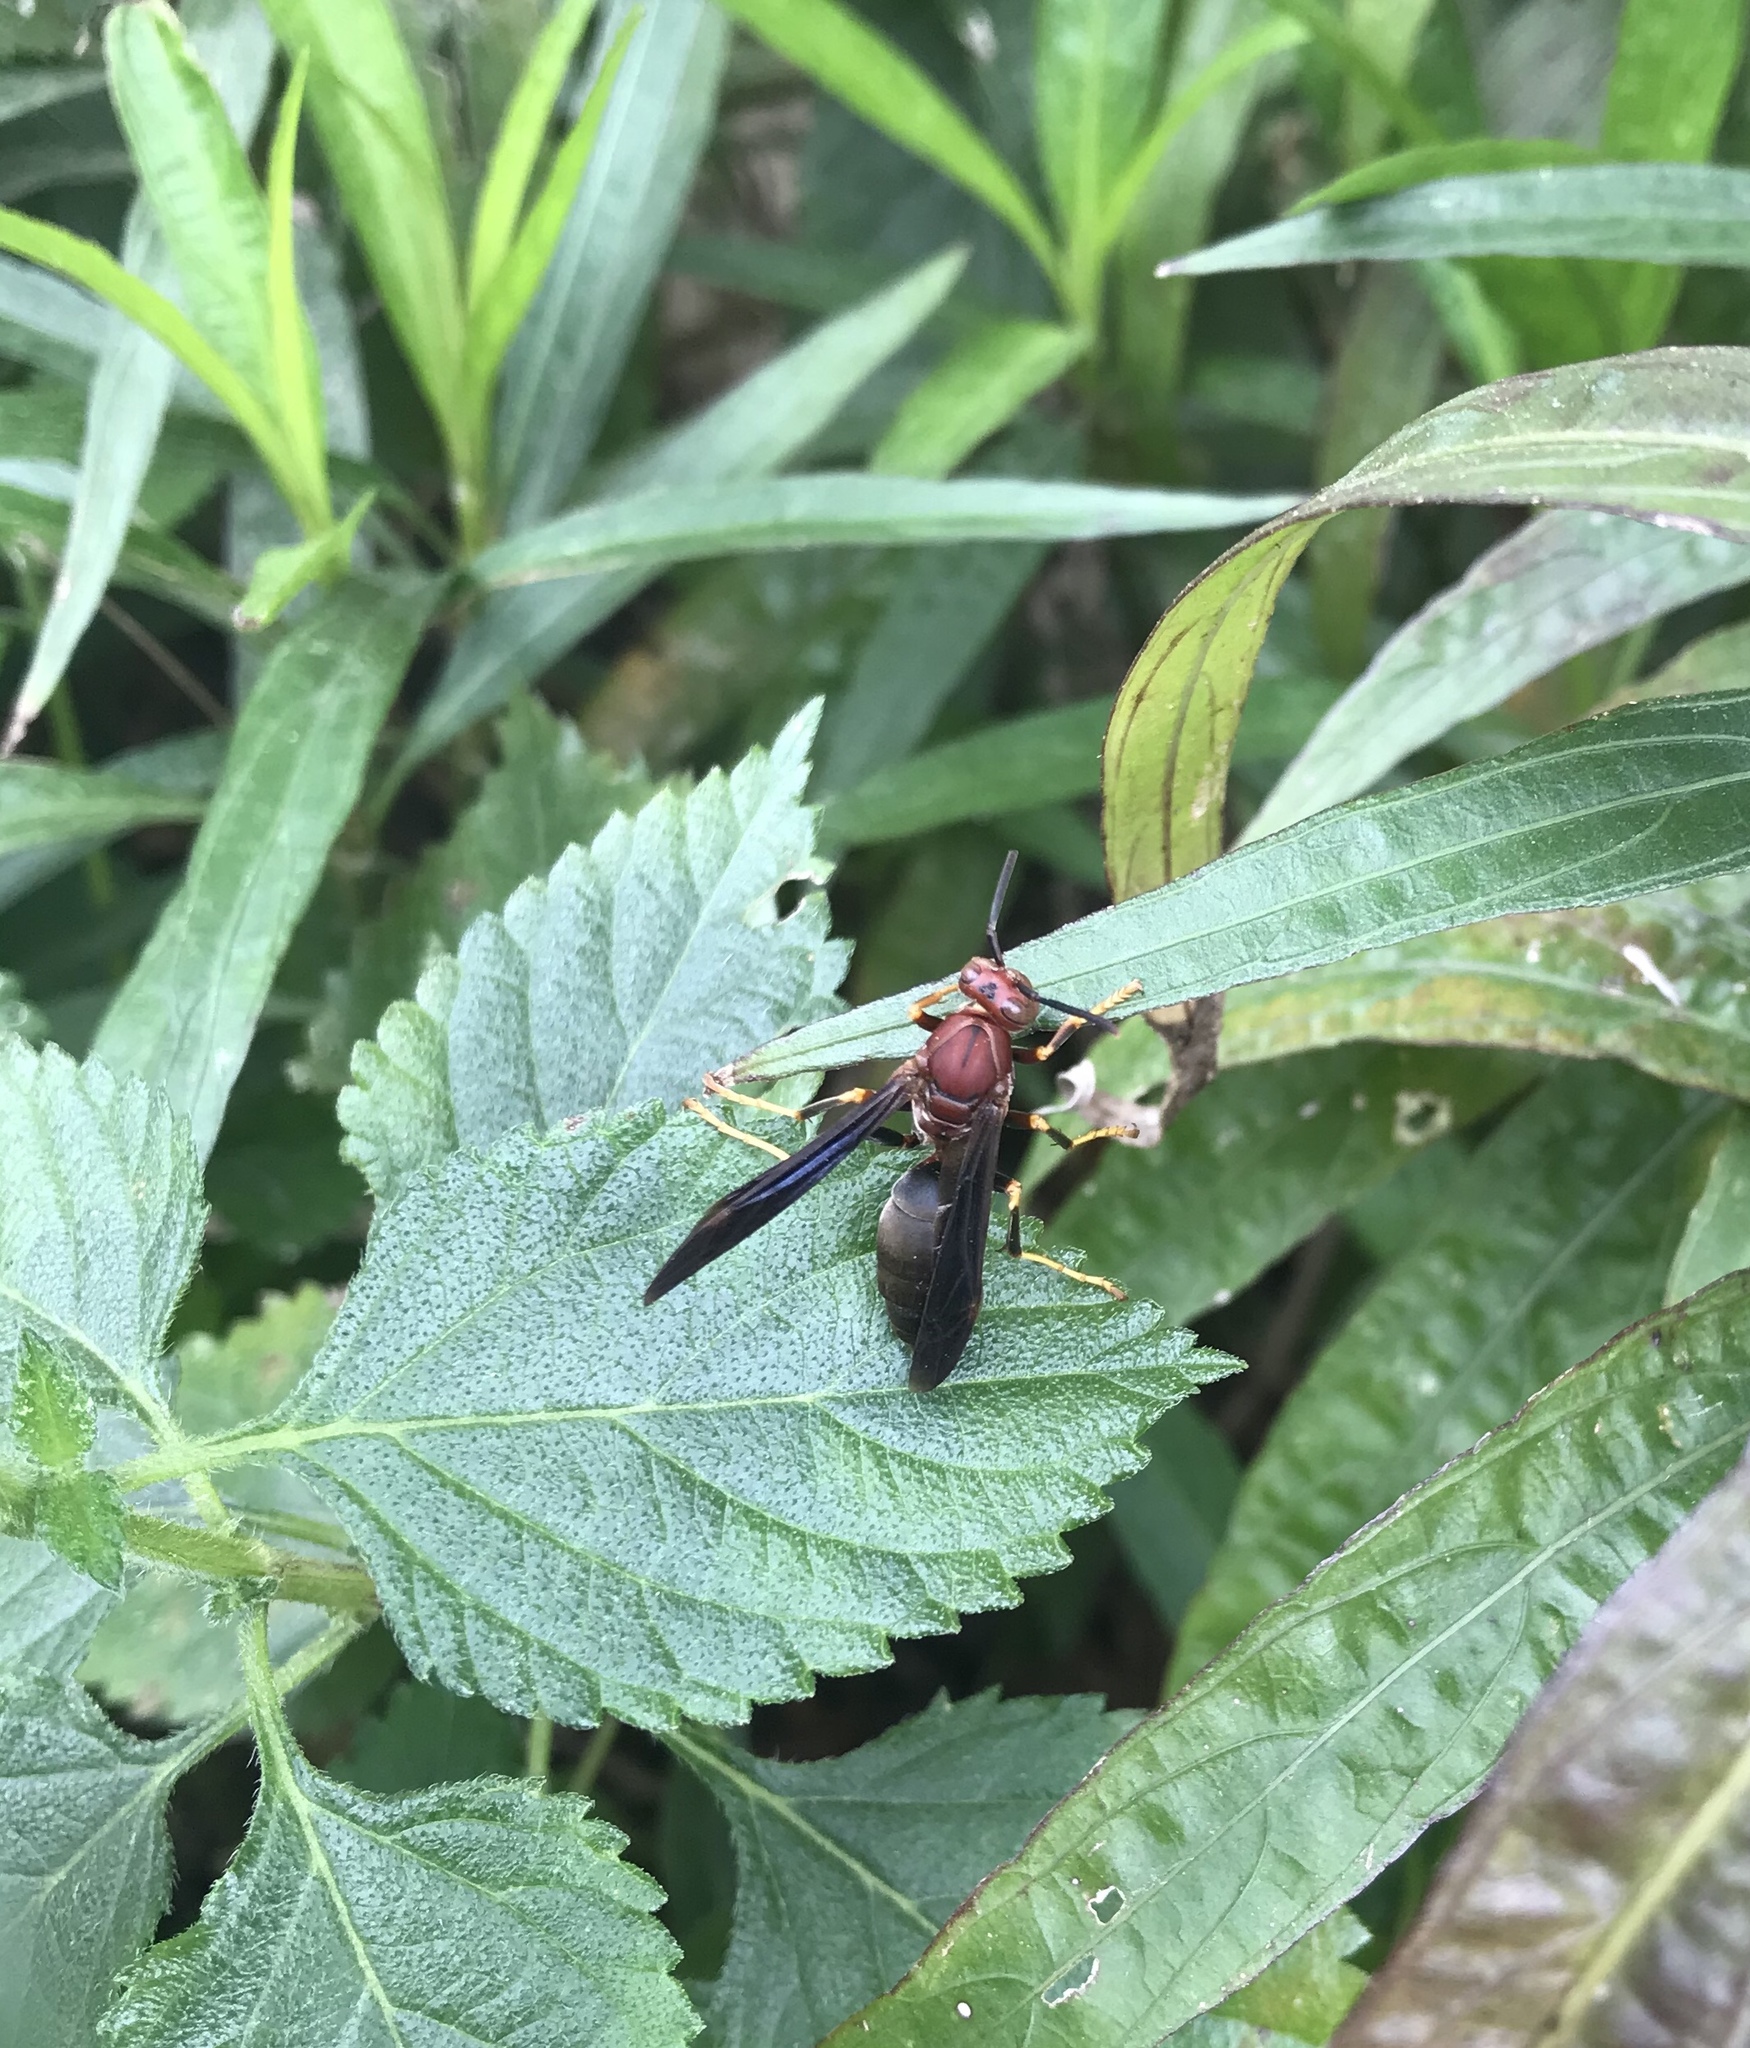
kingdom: Animalia
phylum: Arthropoda
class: Insecta
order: Hymenoptera
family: Eumenidae
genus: Polistes
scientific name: Polistes metricus
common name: Metric paper wasp
